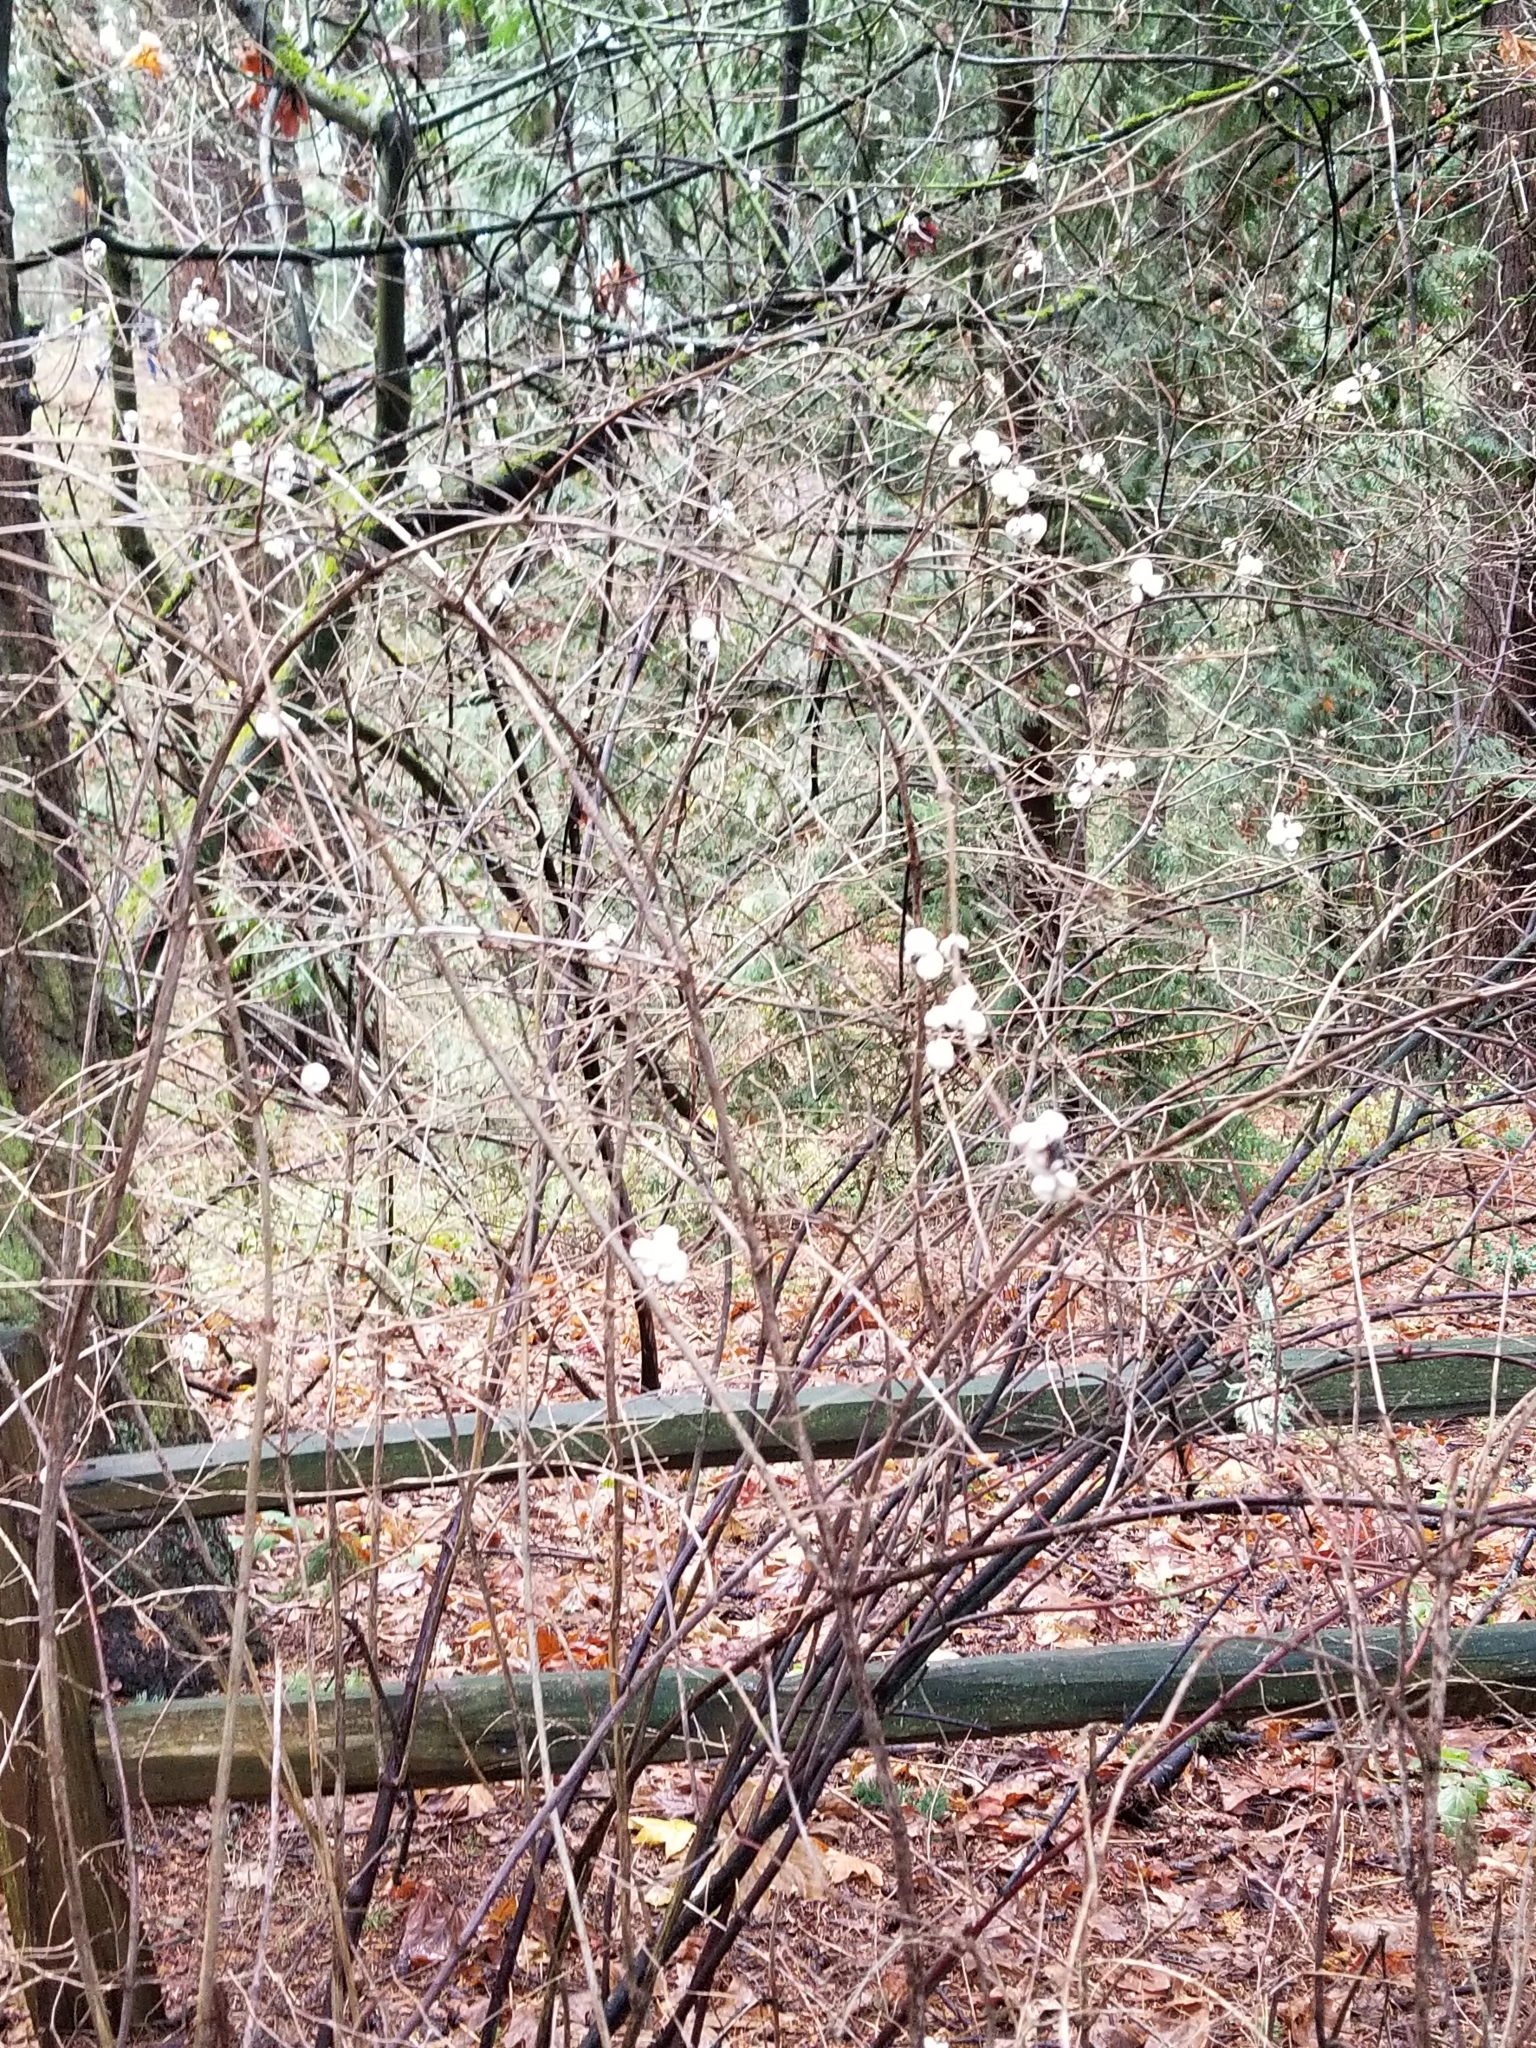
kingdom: Plantae
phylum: Tracheophyta
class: Magnoliopsida
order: Dipsacales
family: Caprifoliaceae
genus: Symphoricarpos
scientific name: Symphoricarpos albus
